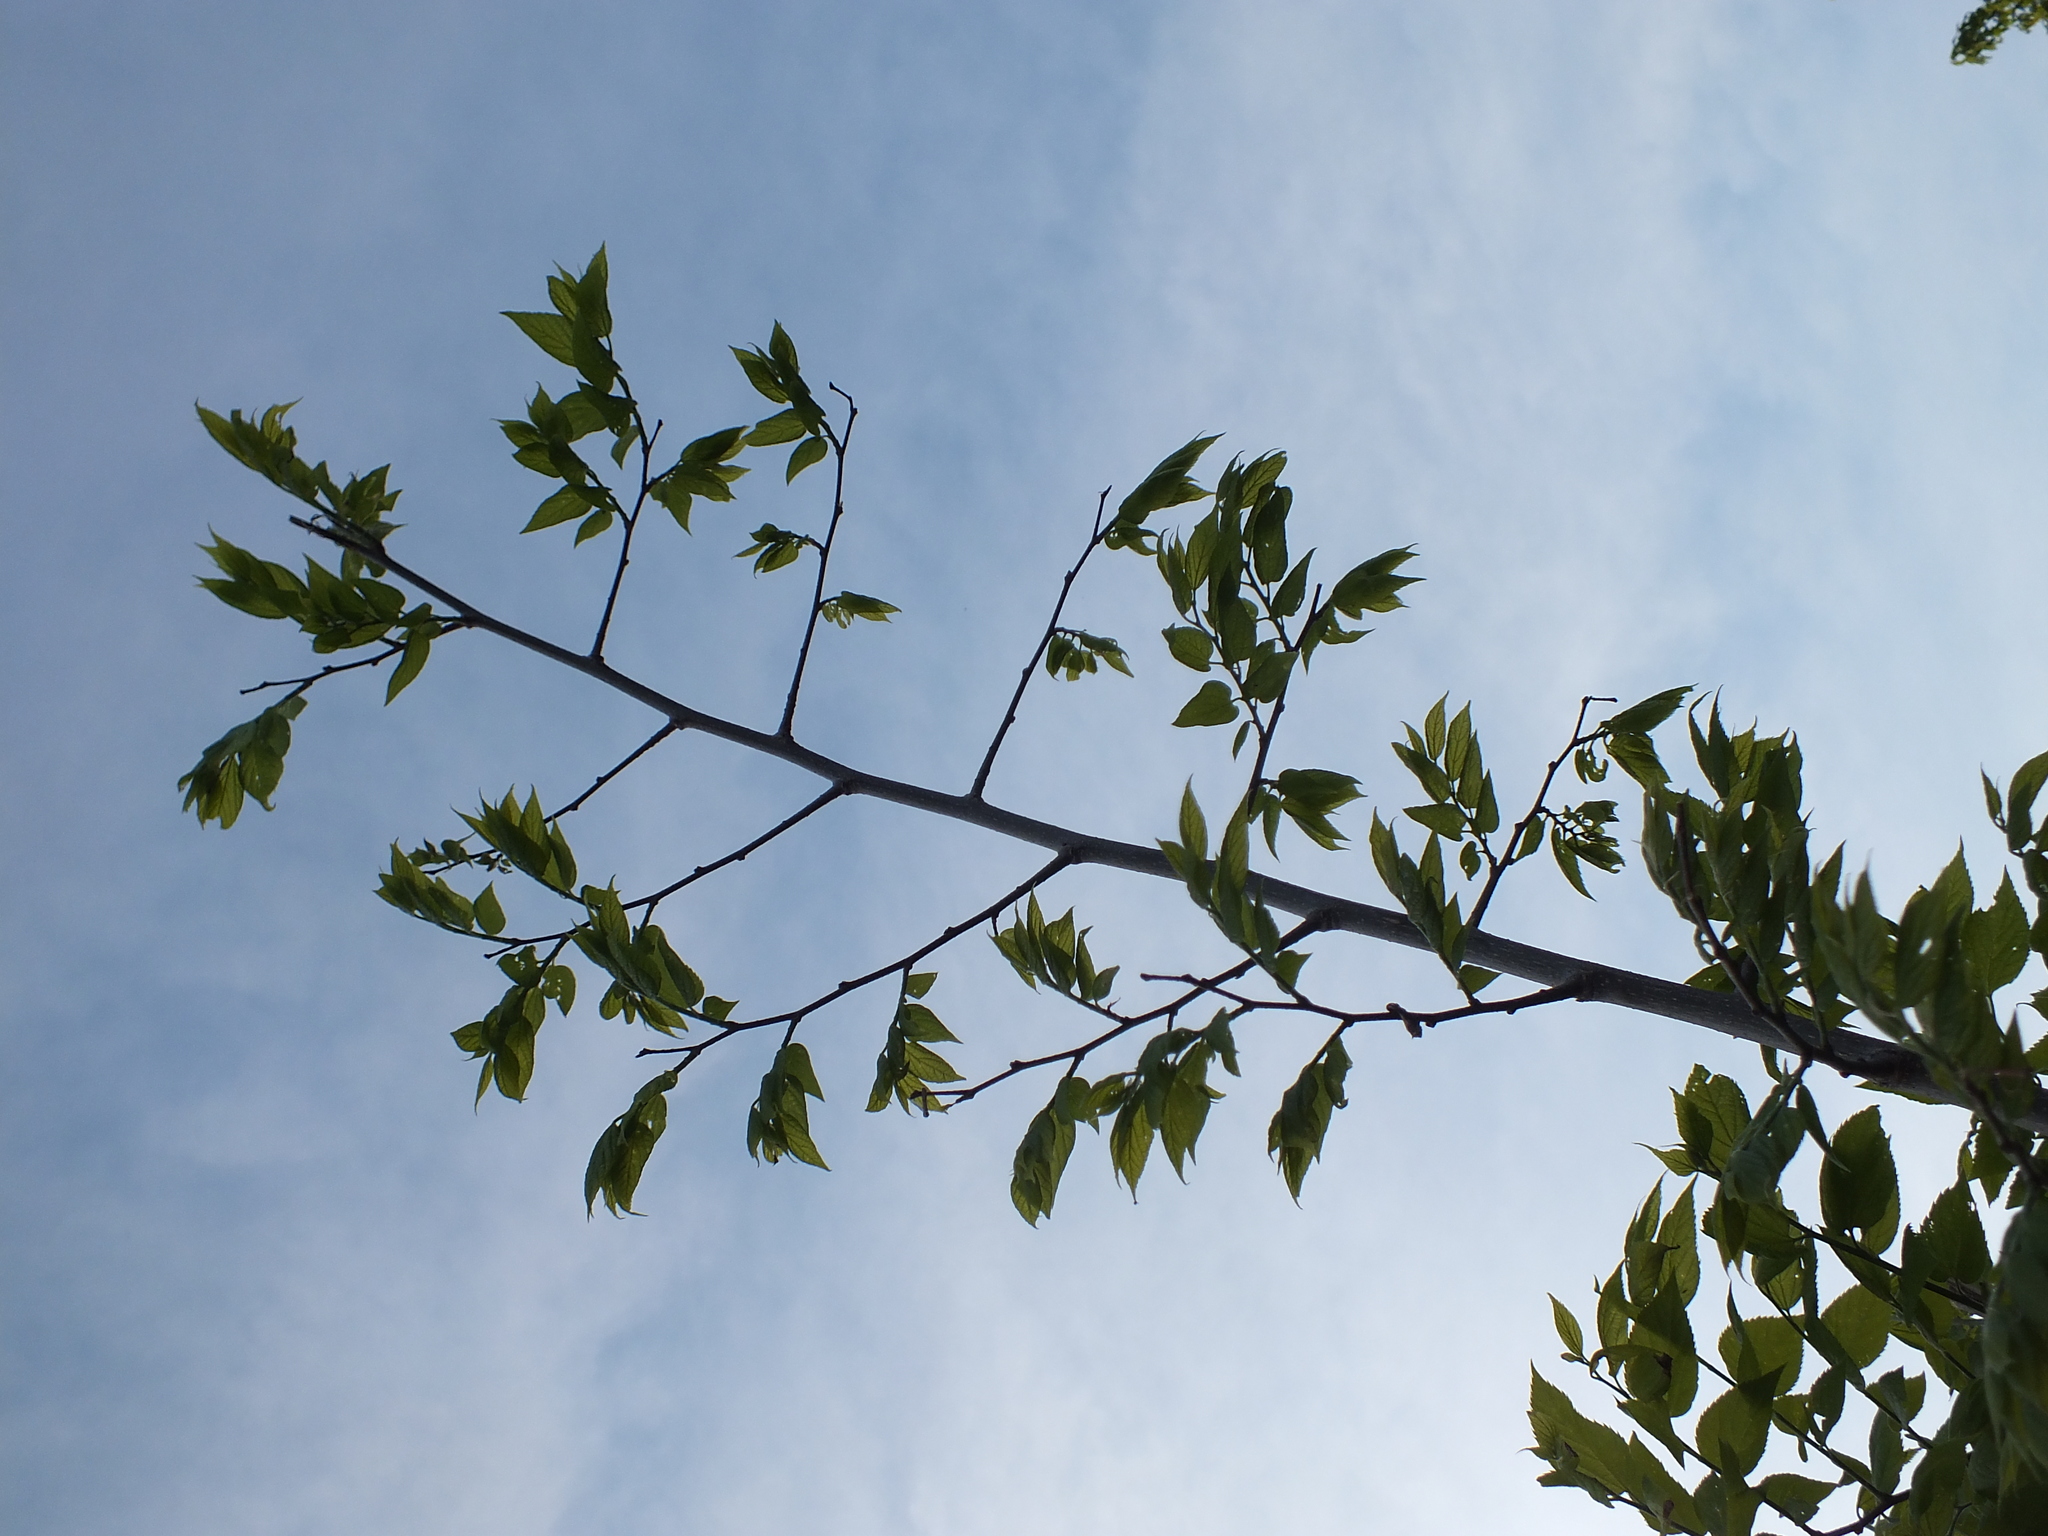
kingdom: Plantae
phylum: Tracheophyta
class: Magnoliopsida
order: Rosales
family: Cannabaceae
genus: Celtis
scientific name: Celtis occidentalis
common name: Common hackberry
